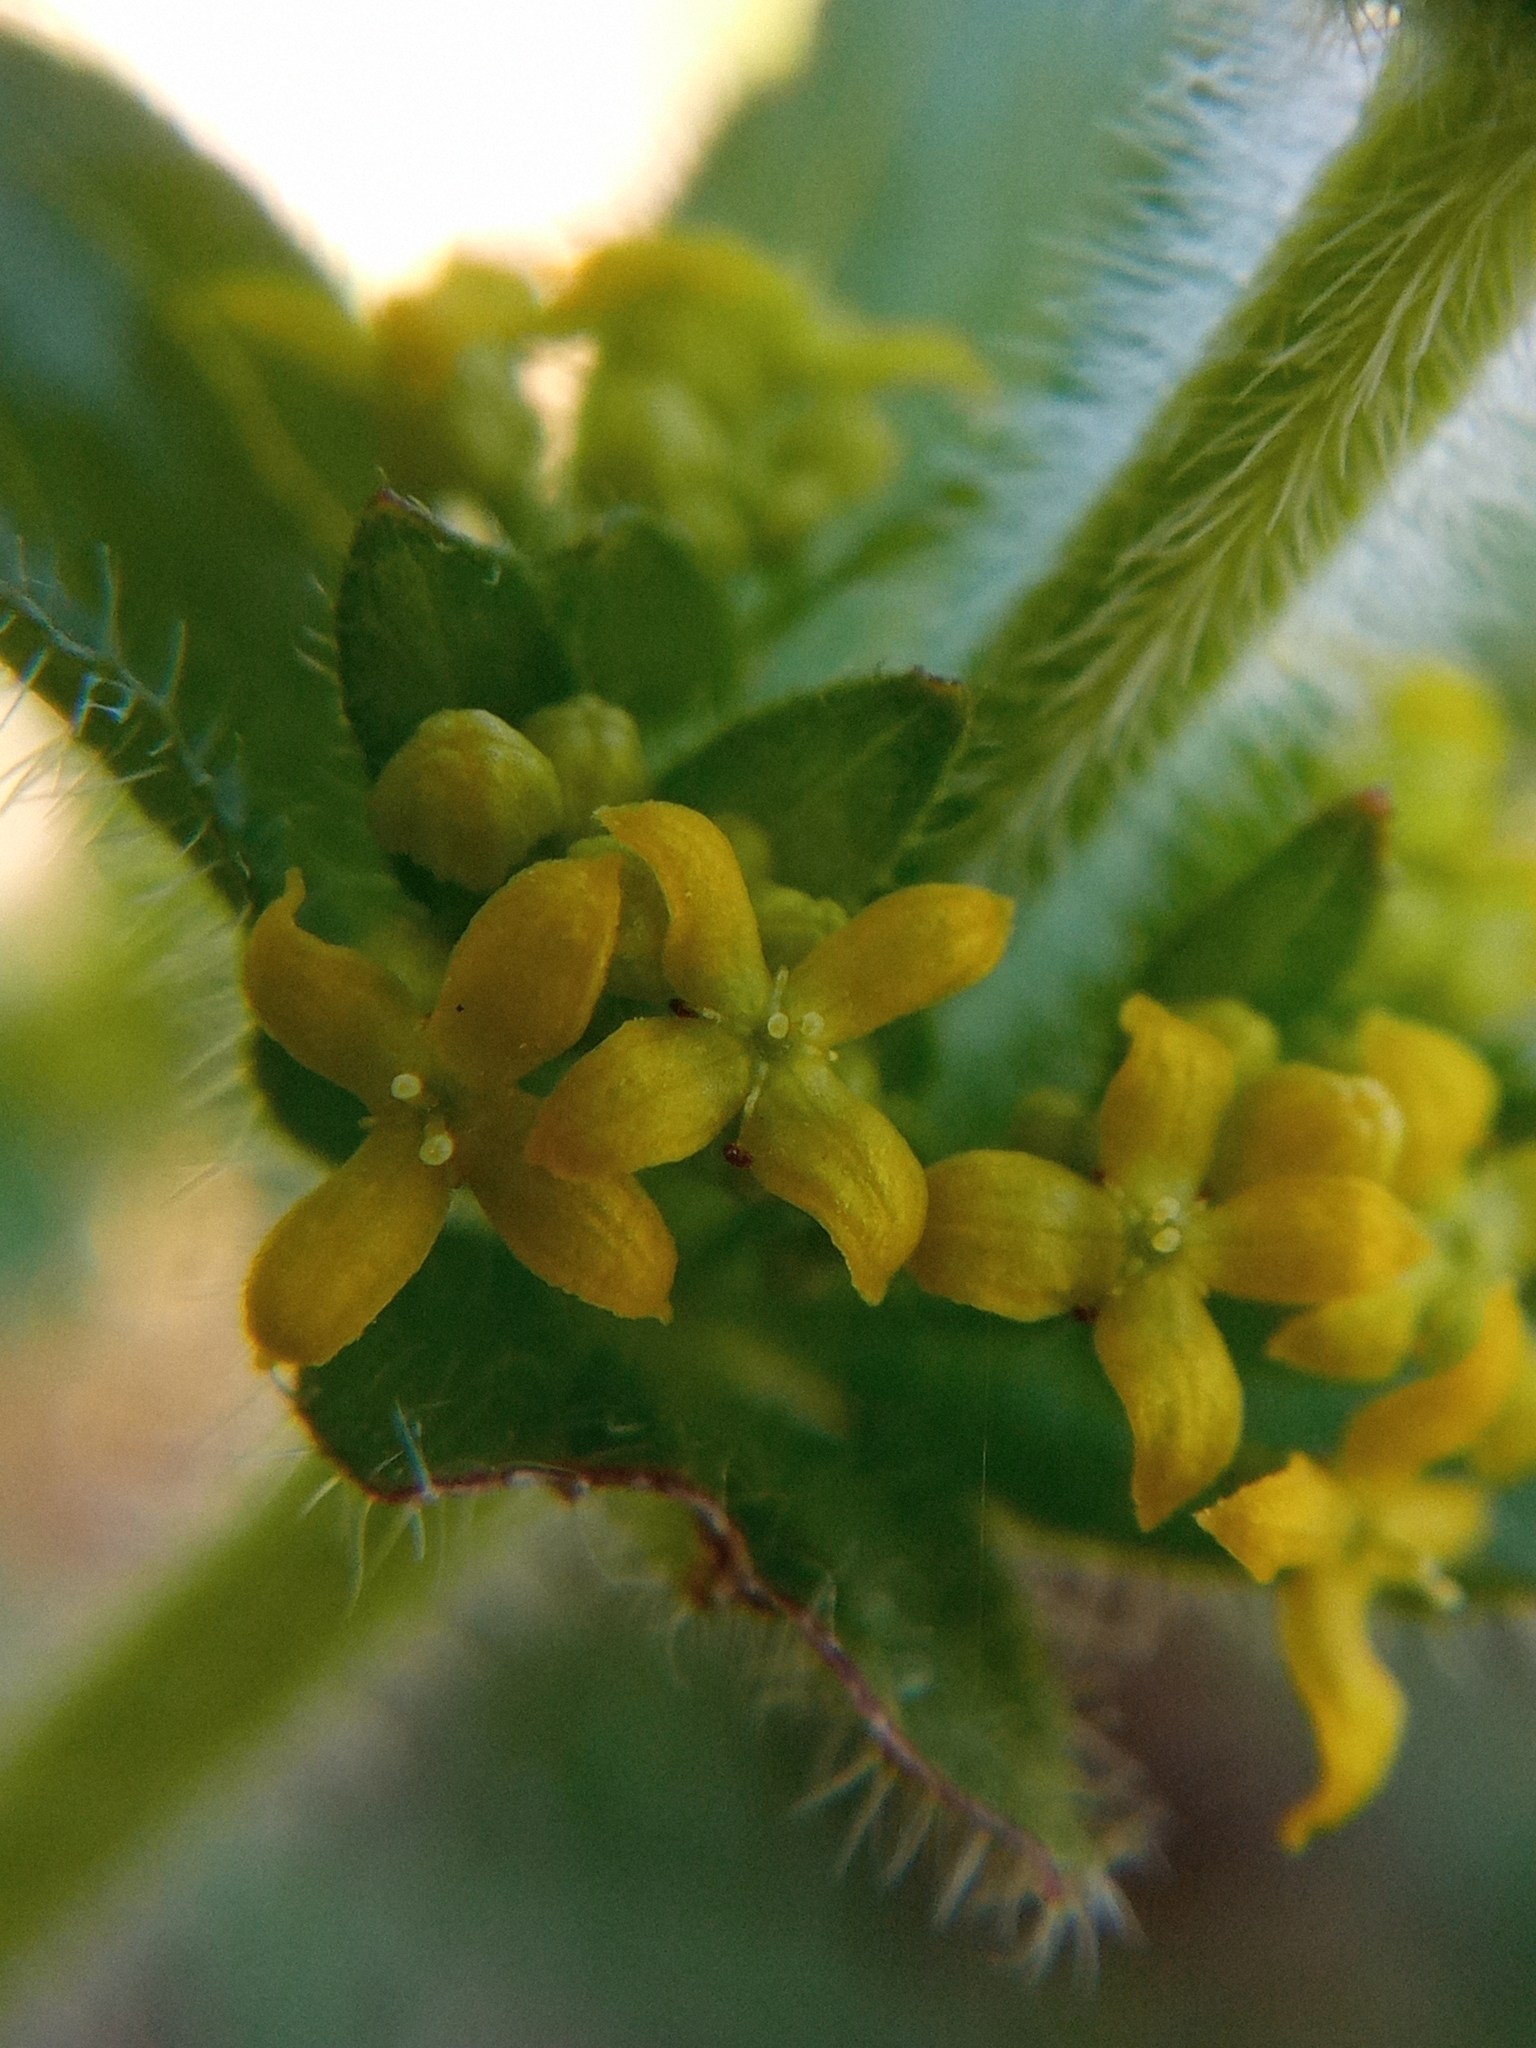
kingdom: Plantae
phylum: Tracheophyta
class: Magnoliopsida
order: Gentianales
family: Rubiaceae
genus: Cruciata
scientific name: Cruciata laevipes
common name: Crosswort
